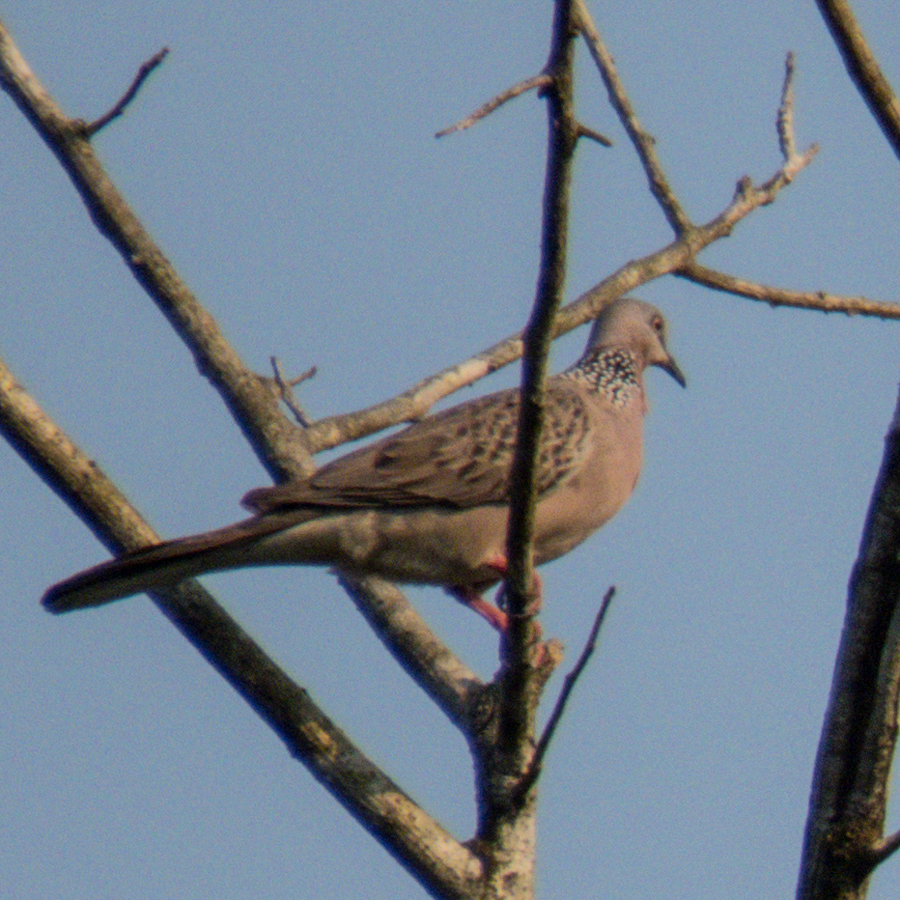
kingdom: Animalia
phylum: Chordata
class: Aves
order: Columbiformes
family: Columbidae
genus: Spilopelia
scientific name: Spilopelia chinensis
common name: Spotted dove
